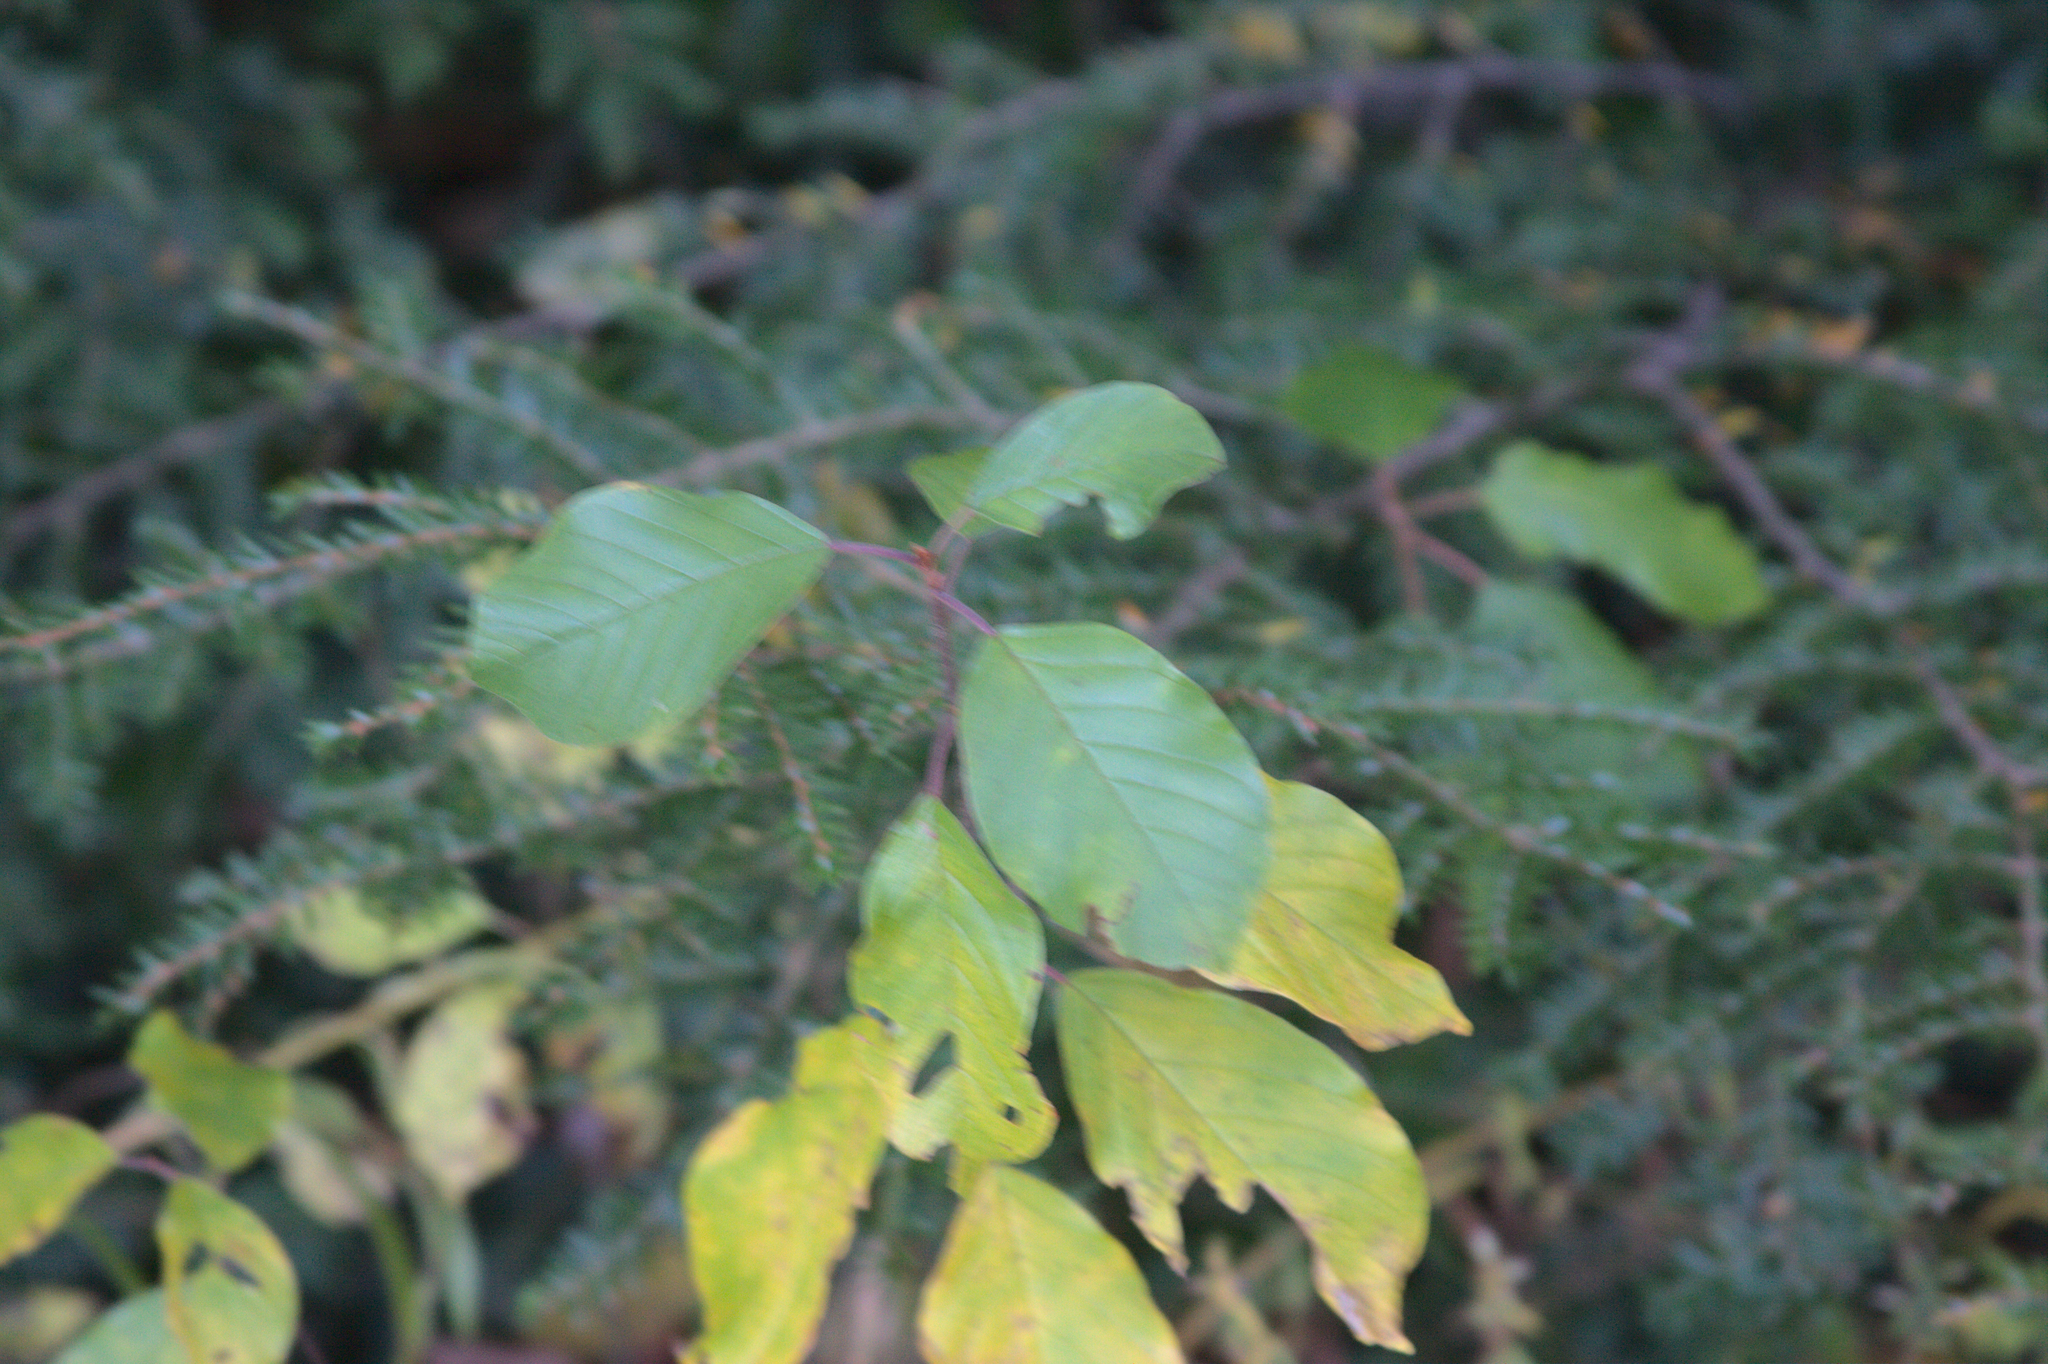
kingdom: Plantae
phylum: Tracheophyta
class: Magnoliopsida
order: Rosales
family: Rhamnaceae
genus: Frangula
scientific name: Frangula alnus
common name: Alder buckthorn
